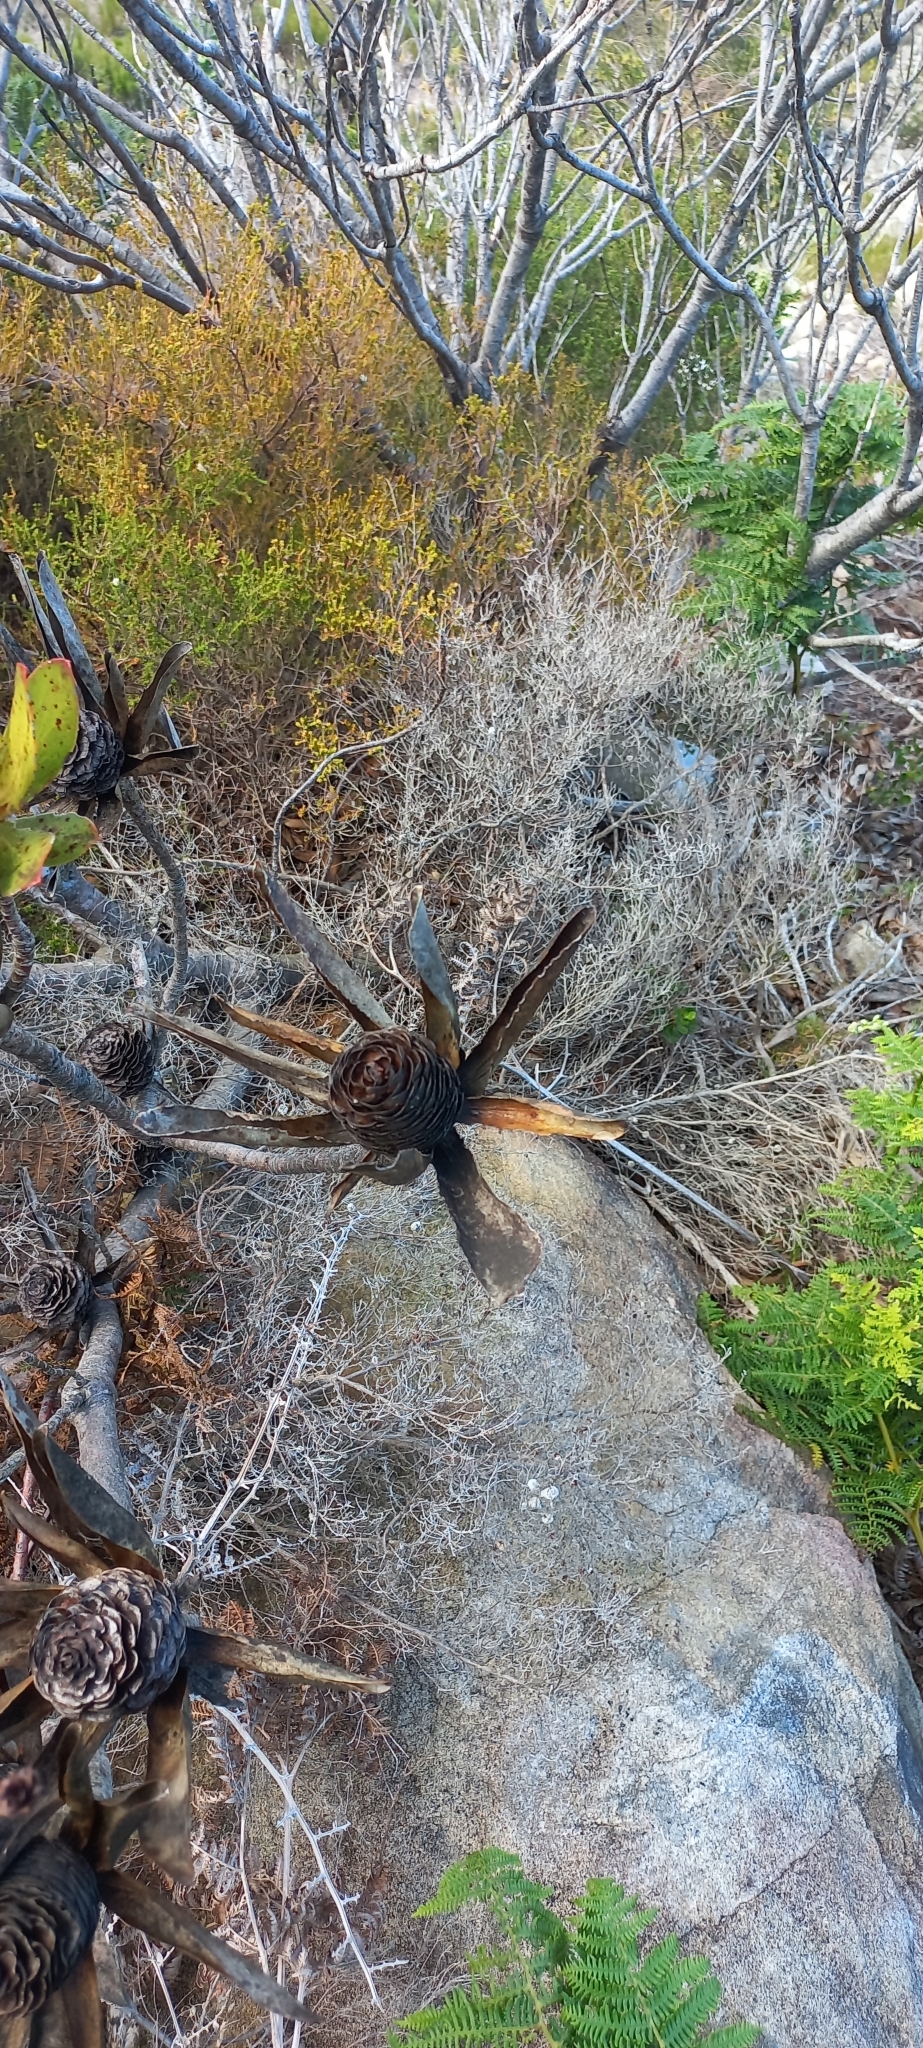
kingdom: Plantae
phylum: Tracheophyta
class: Magnoliopsida
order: Proteales
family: Proteaceae
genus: Leucadendron
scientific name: Leucadendron gandogeri
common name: Broad-leaf conebush
